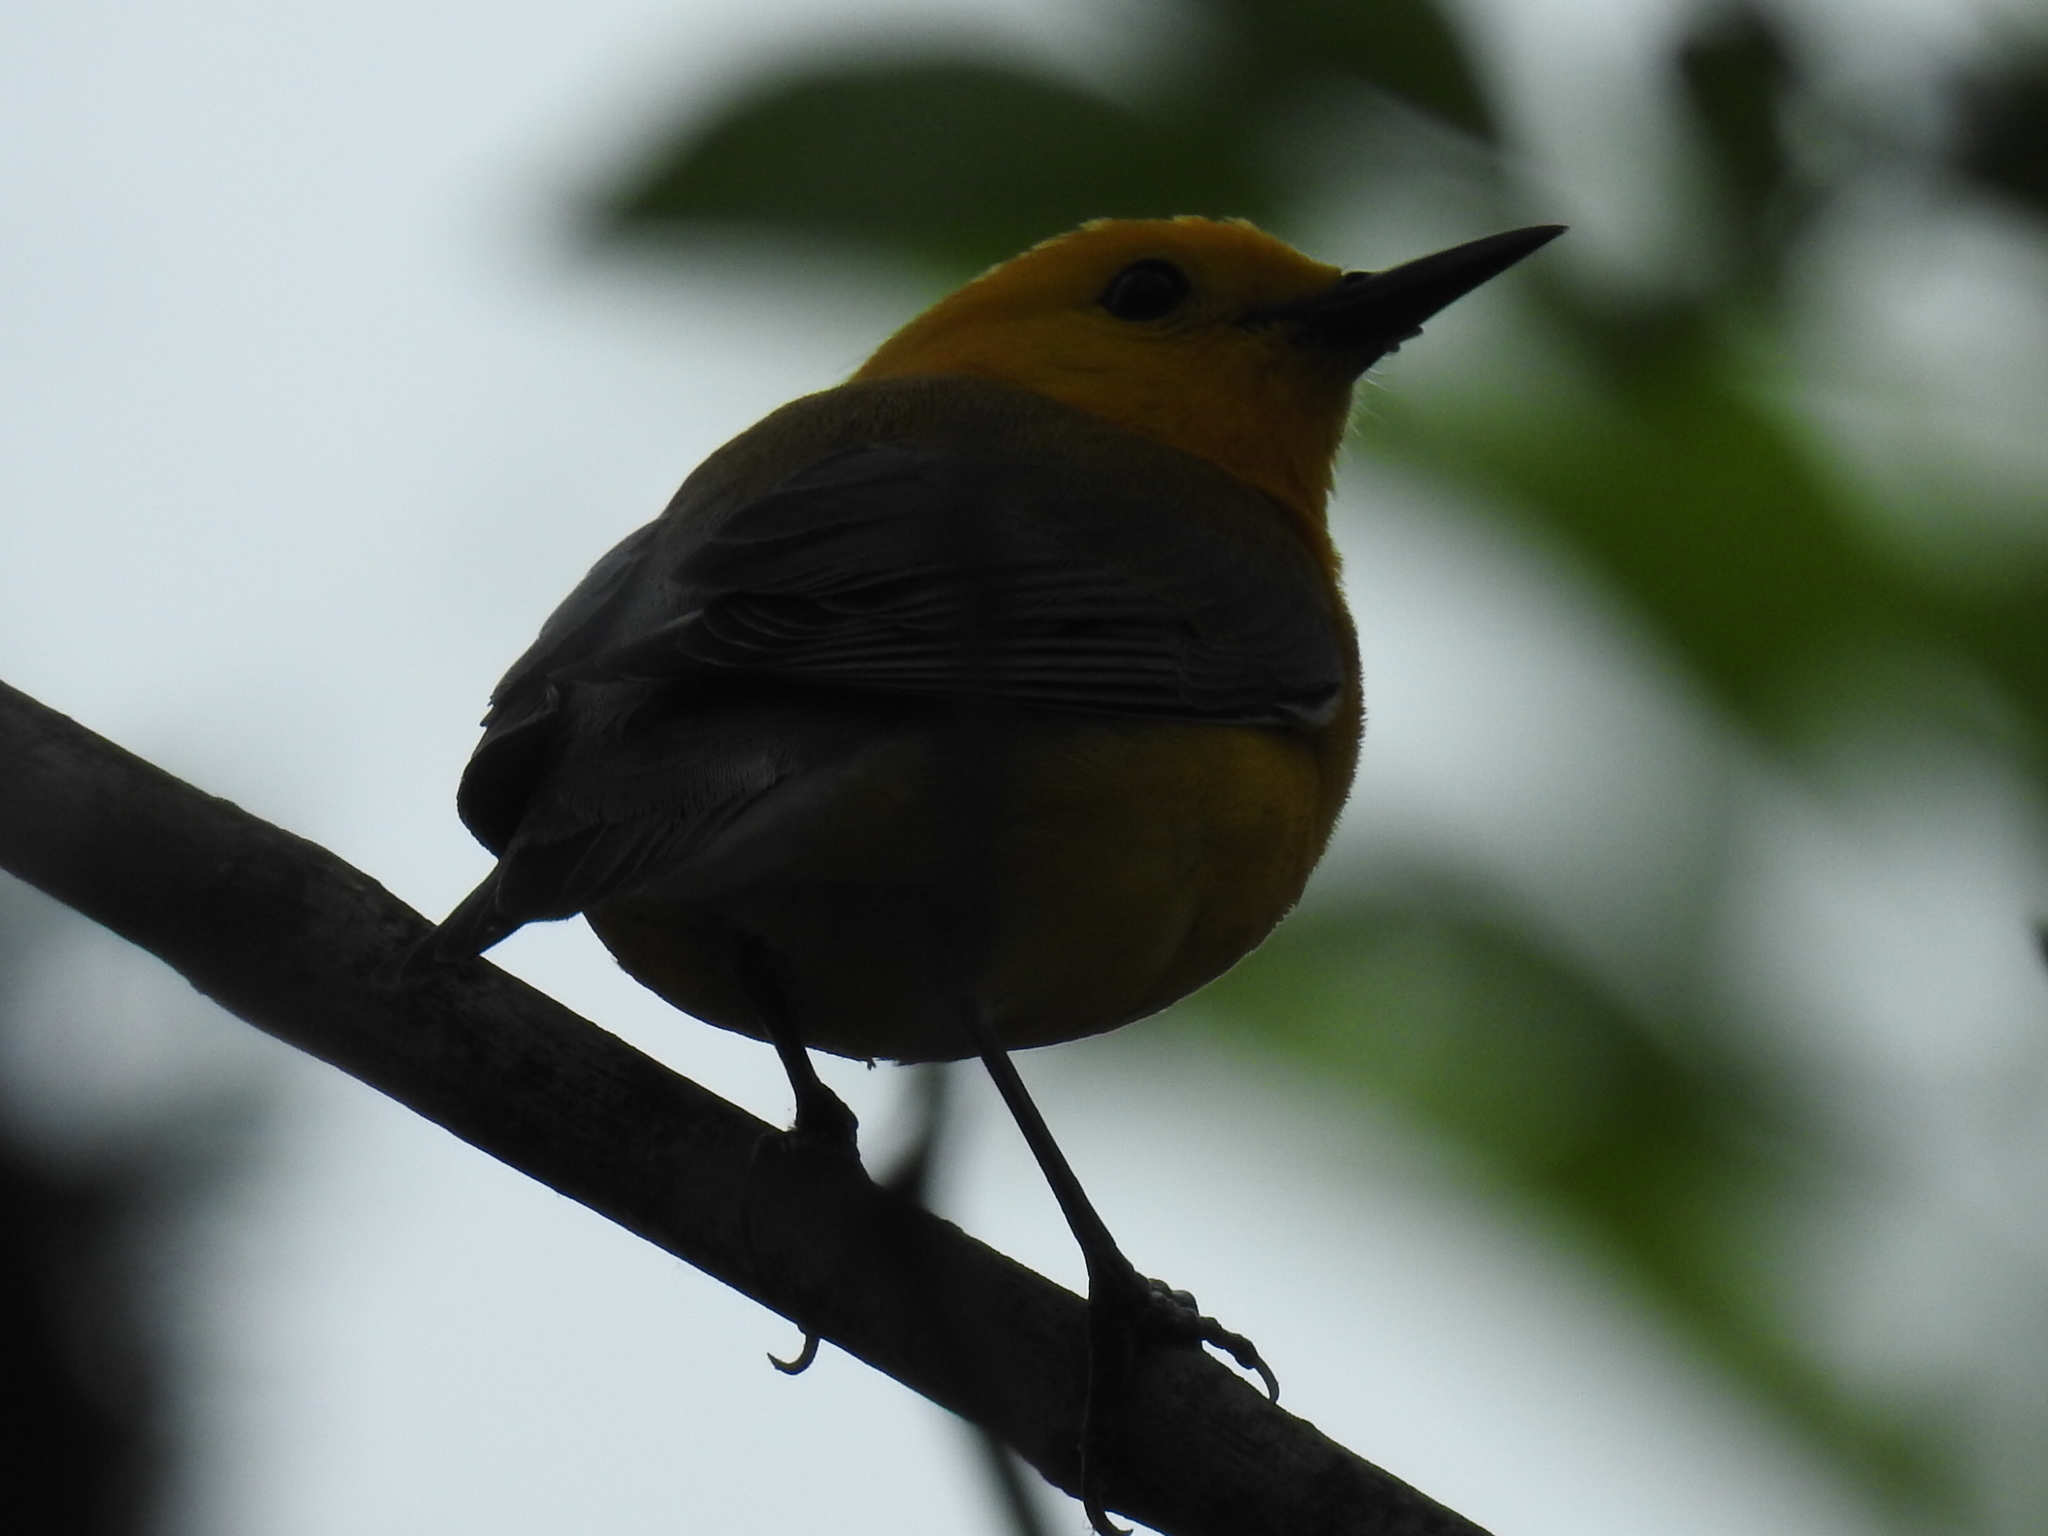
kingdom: Animalia
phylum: Chordata
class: Aves
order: Passeriformes
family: Parulidae
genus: Protonotaria
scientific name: Protonotaria citrea
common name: Prothonotary warbler
